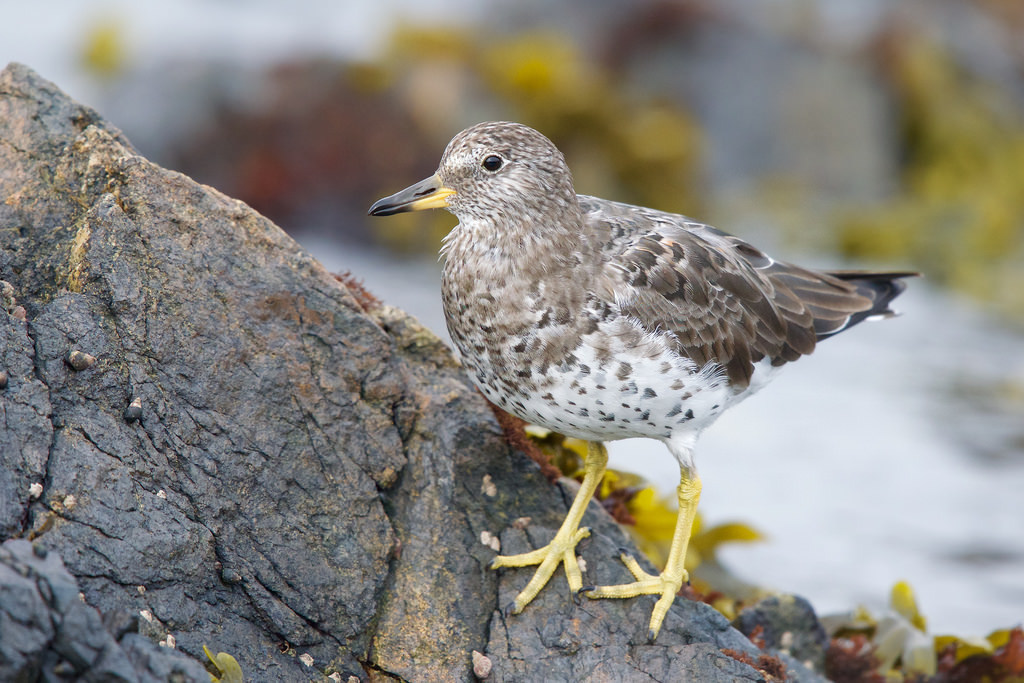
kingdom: Animalia
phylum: Chordata
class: Aves
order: Charadriiformes
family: Scolopacidae
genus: Calidris
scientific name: Calidris virgata
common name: Surfbird
